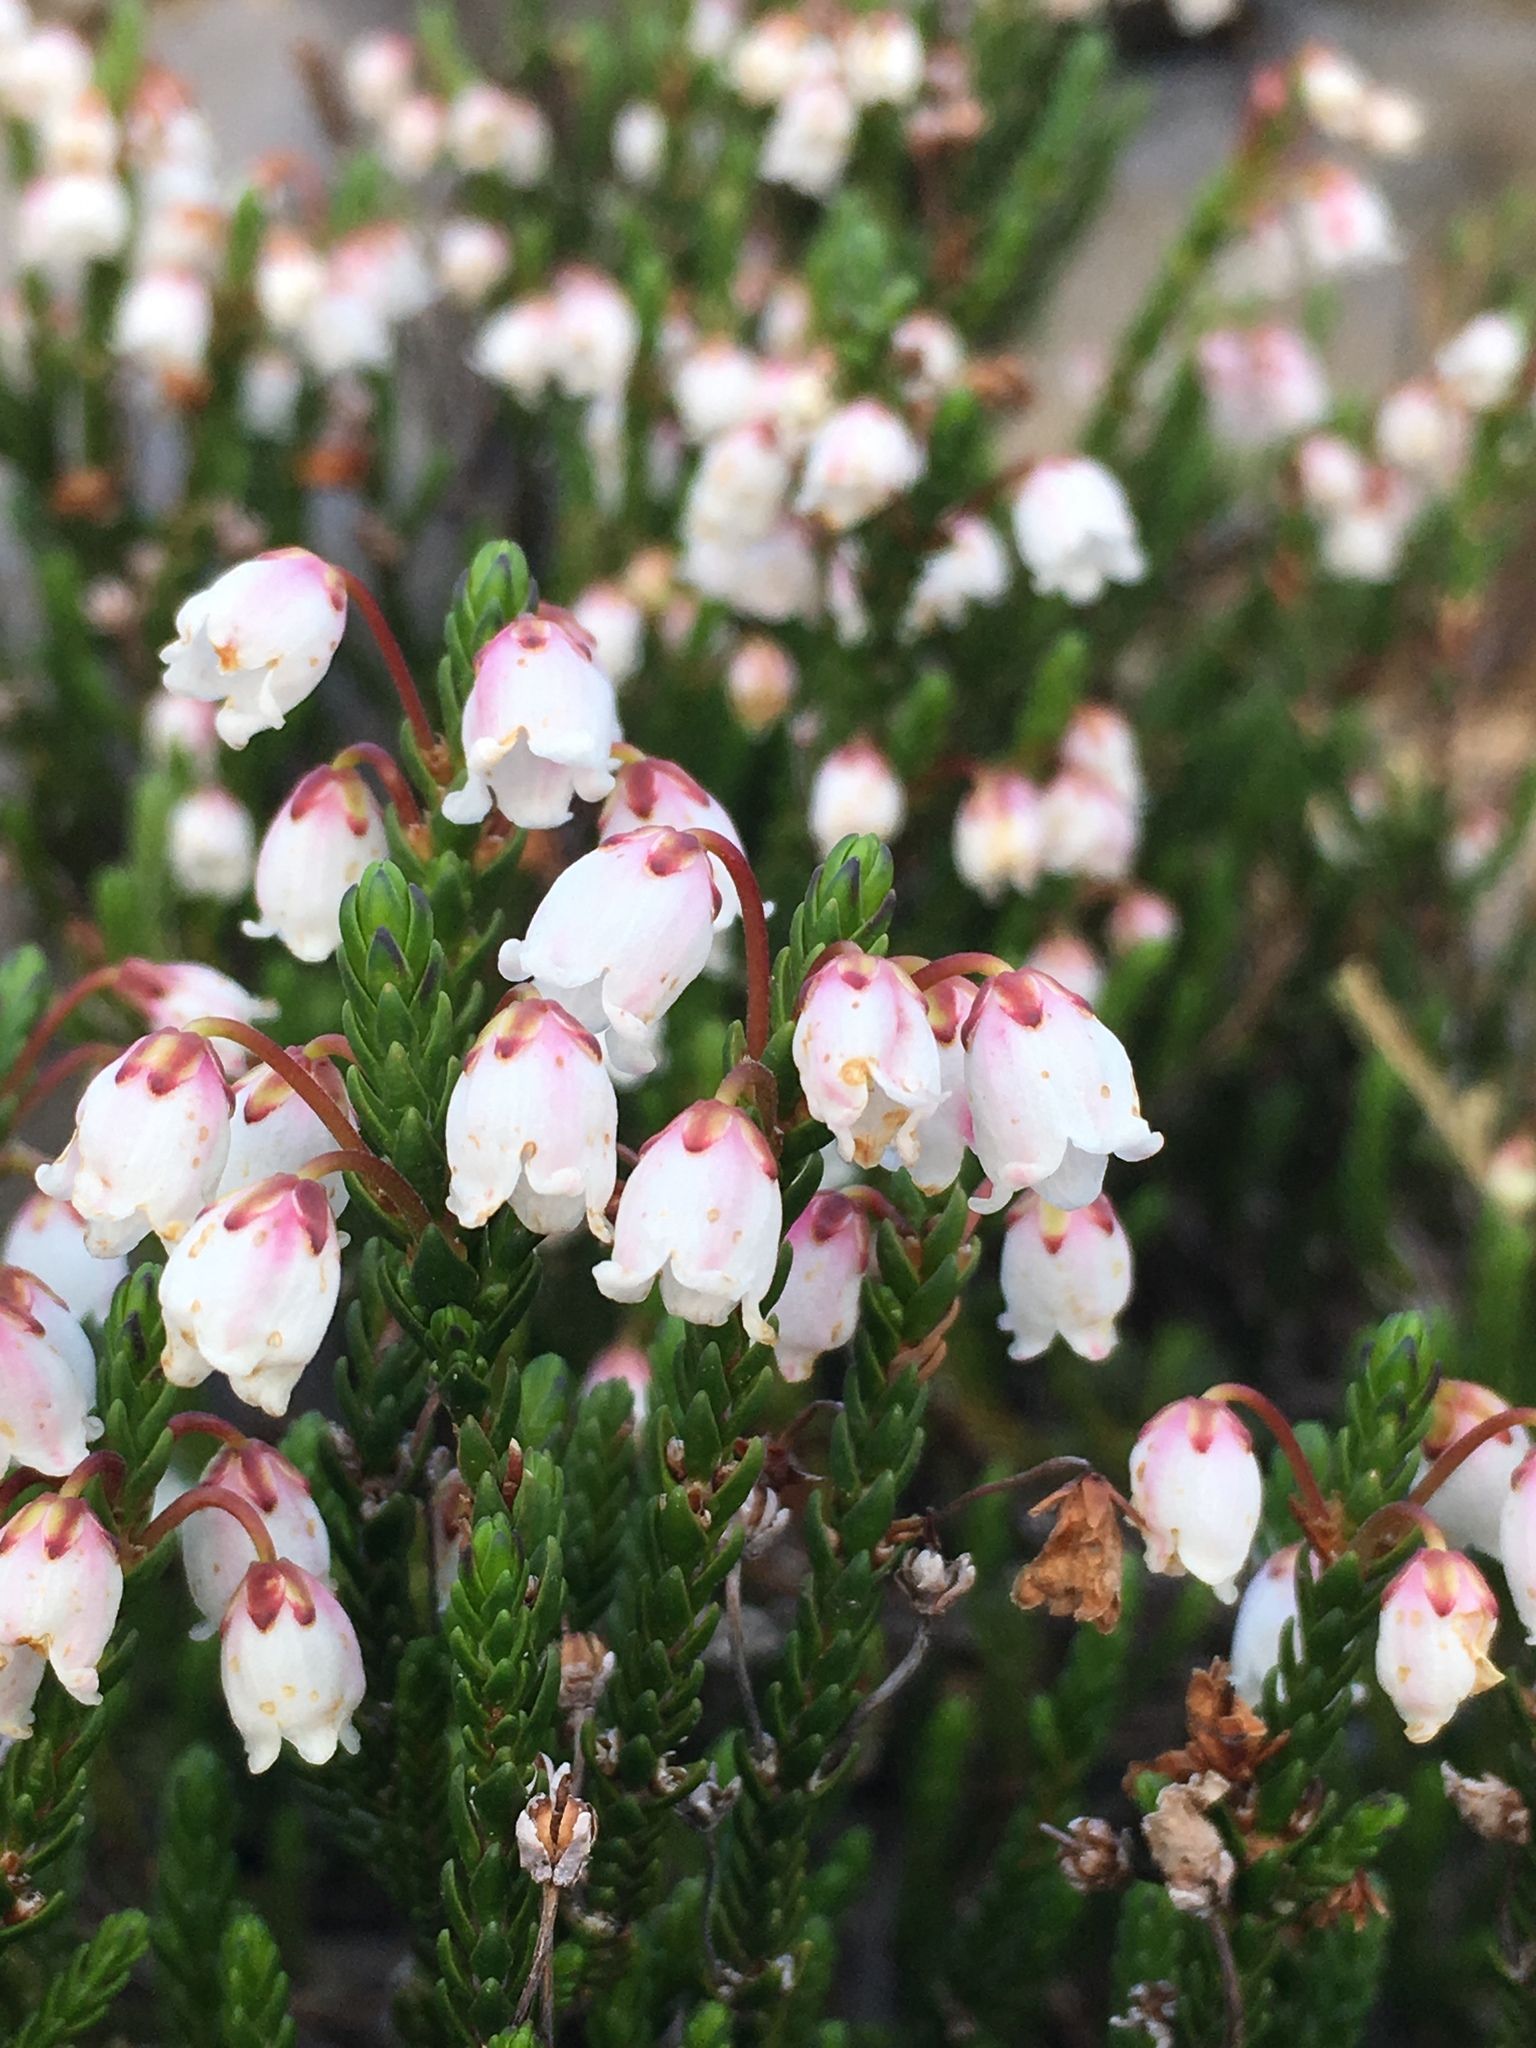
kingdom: Plantae
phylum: Tracheophyta
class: Magnoliopsida
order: Ericales
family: Ericaceae
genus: Cassiope
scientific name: Cassiope mertensiana
